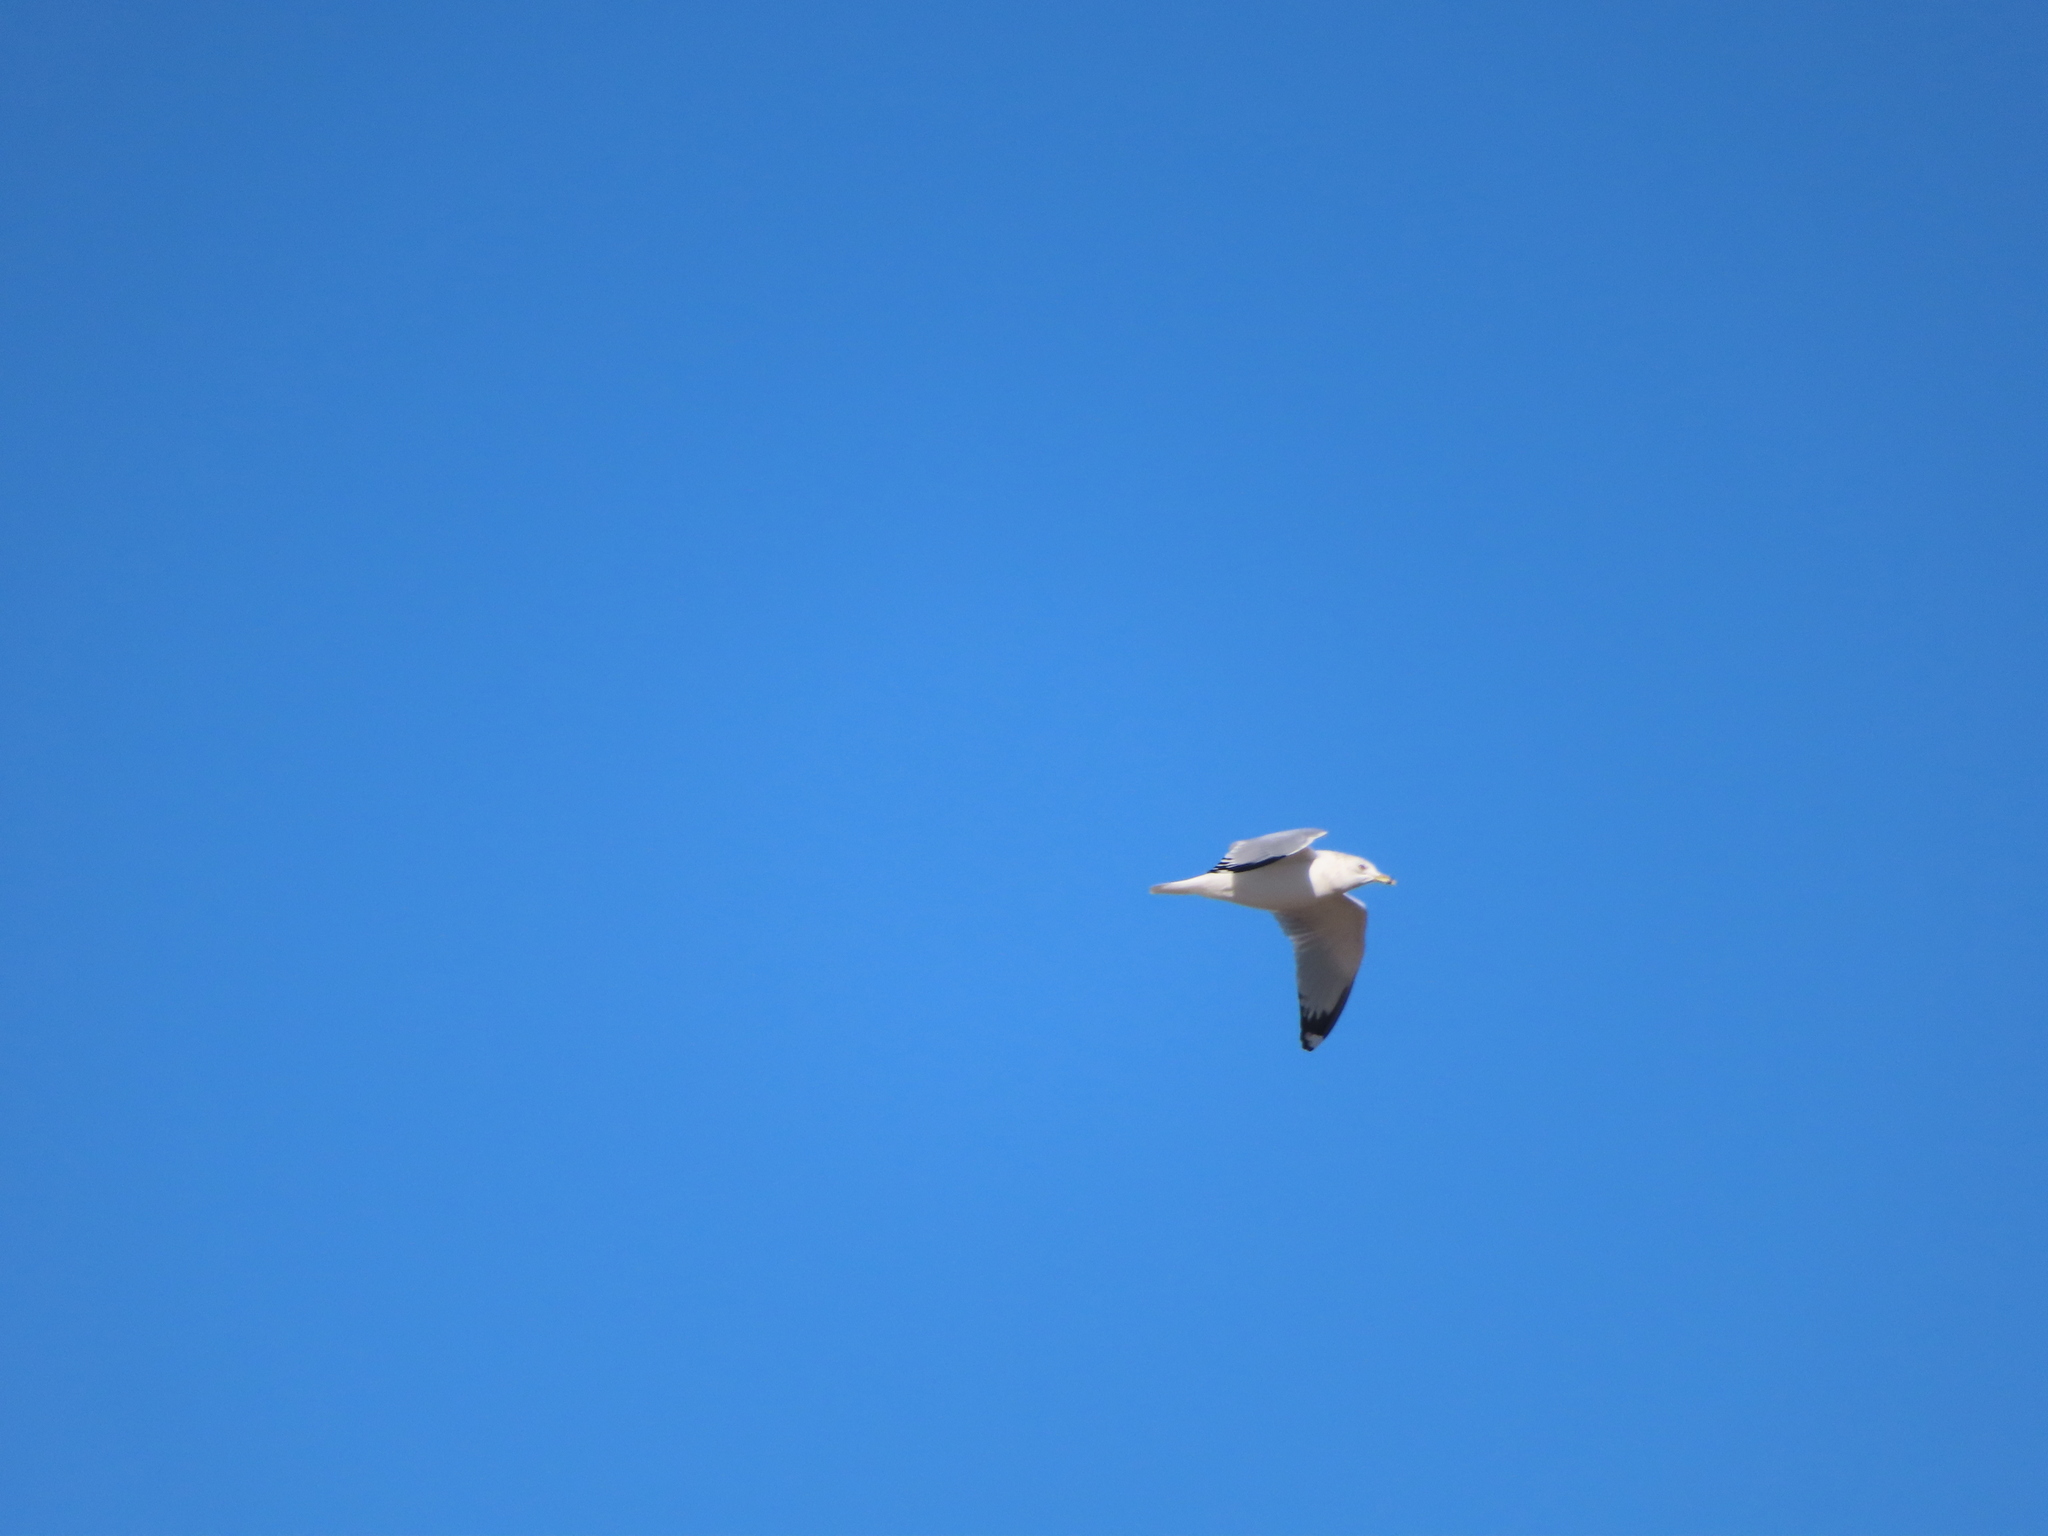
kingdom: Animalia
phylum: Chordata
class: Aves
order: Charadriiformes
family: Laridae
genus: Larus
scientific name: Larus delawarensis
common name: Ring-billed gull
